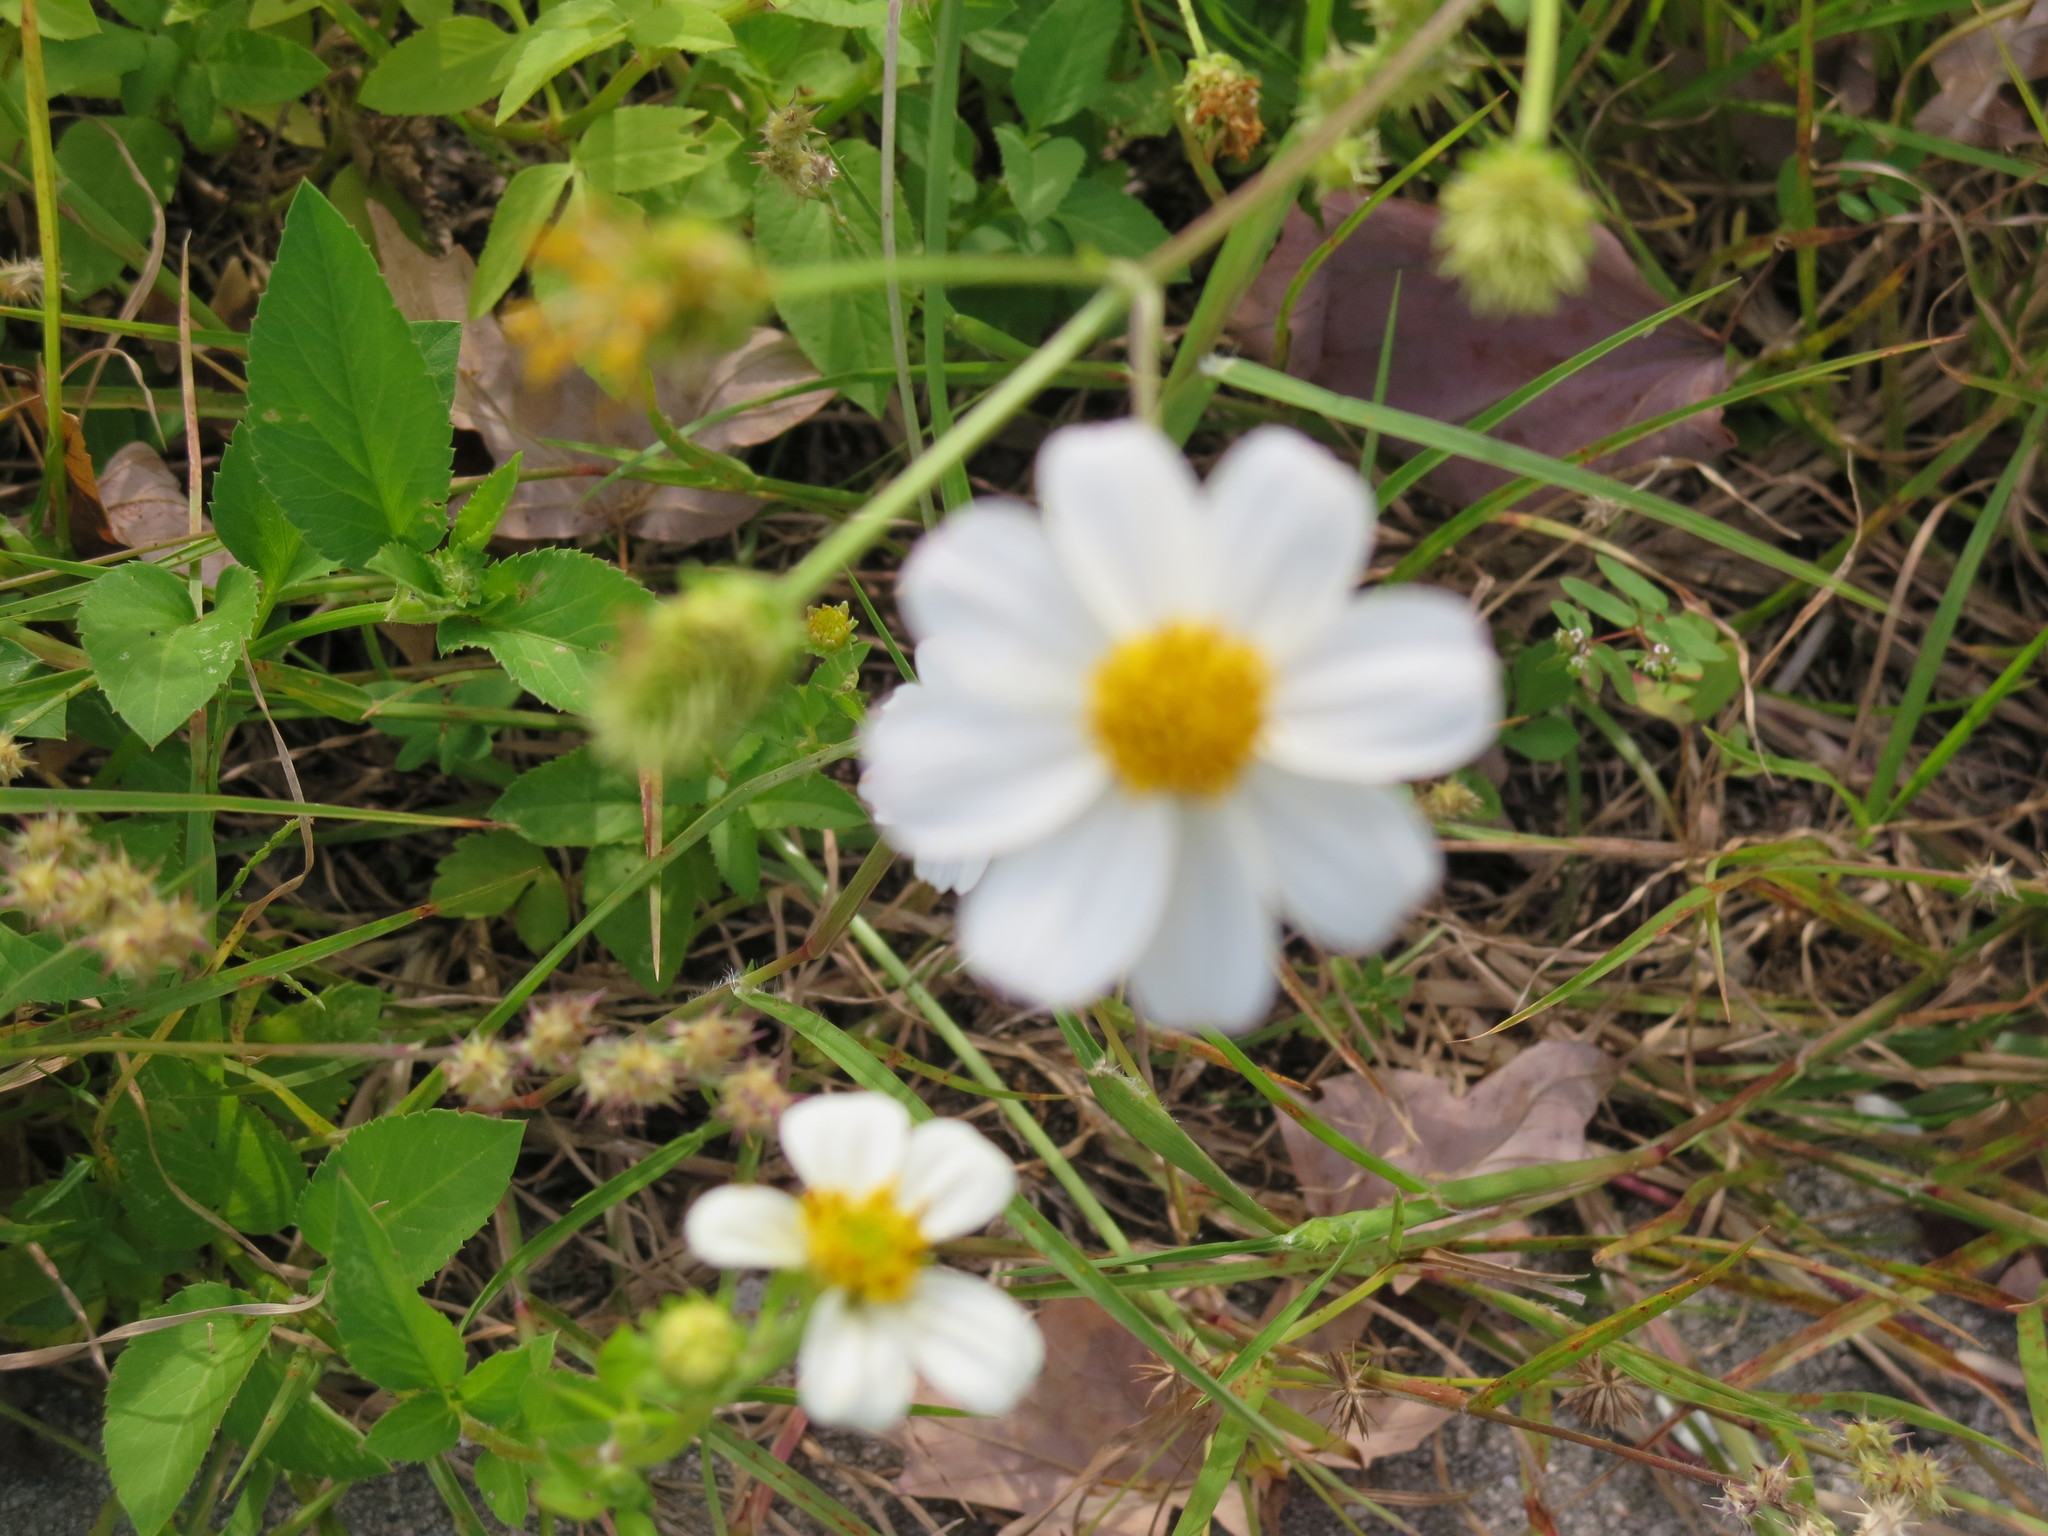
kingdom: Plantae
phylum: Tracheophyta
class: Magnoliopsida
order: Asterales
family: Asteraceae
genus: Bidens
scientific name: Bidens alba
